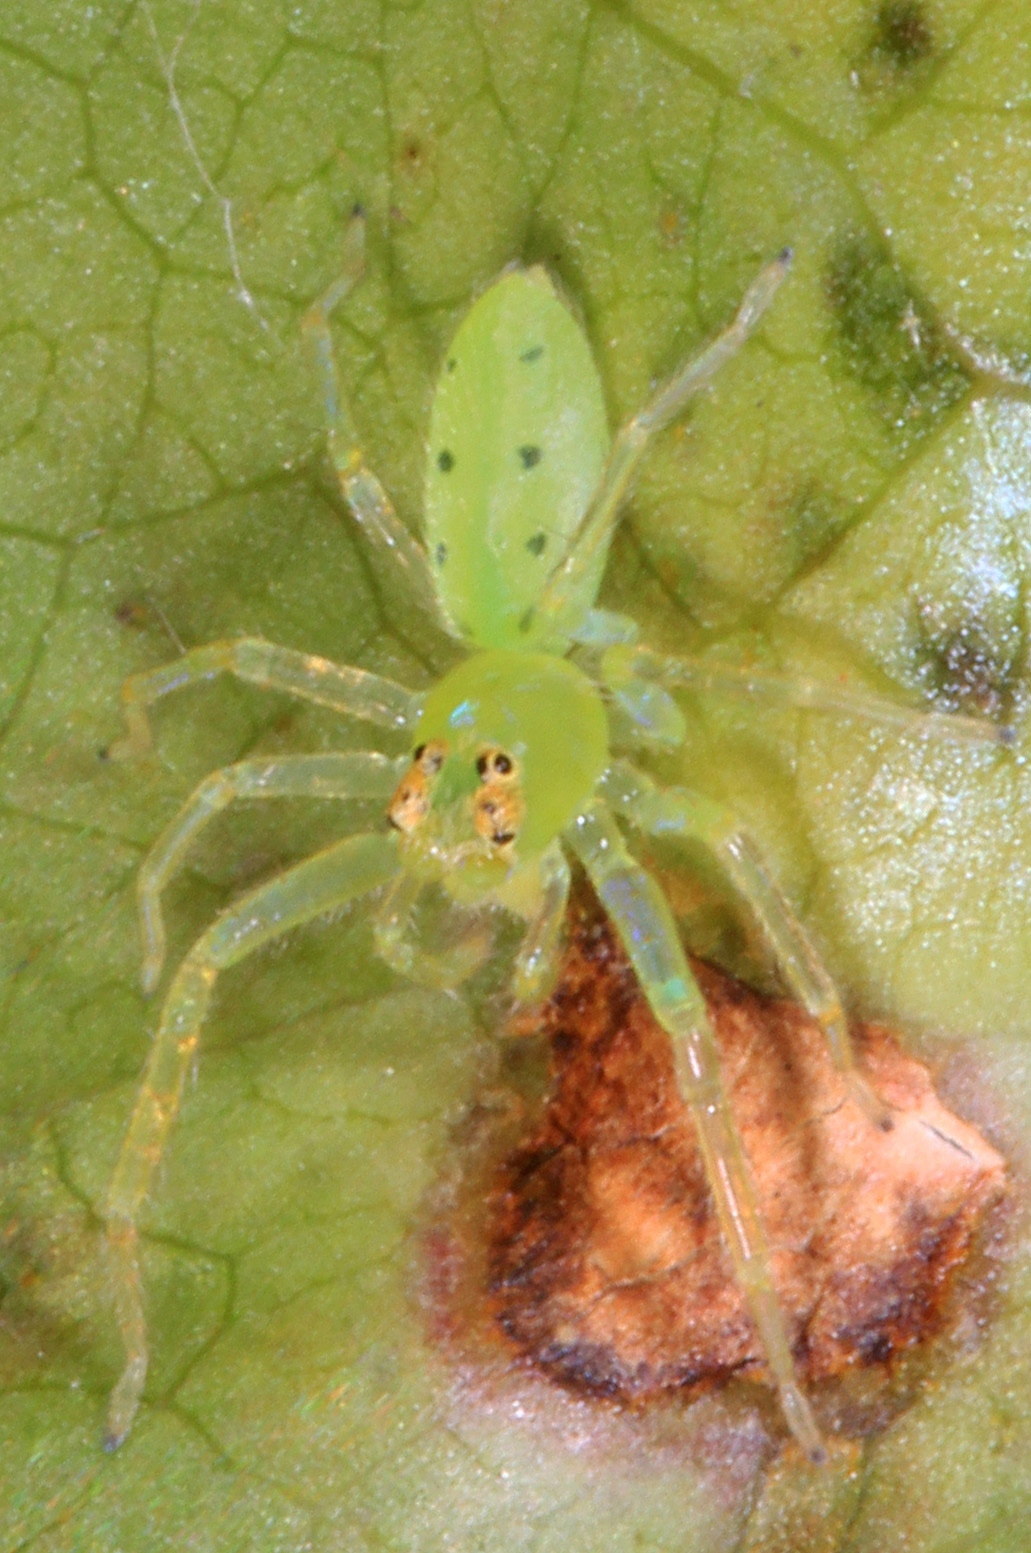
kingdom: Animalia
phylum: Arthropoda
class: Arachnida
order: Araneae
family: Salticidae
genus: Lyssomanes
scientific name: Lyssomanes viridis
